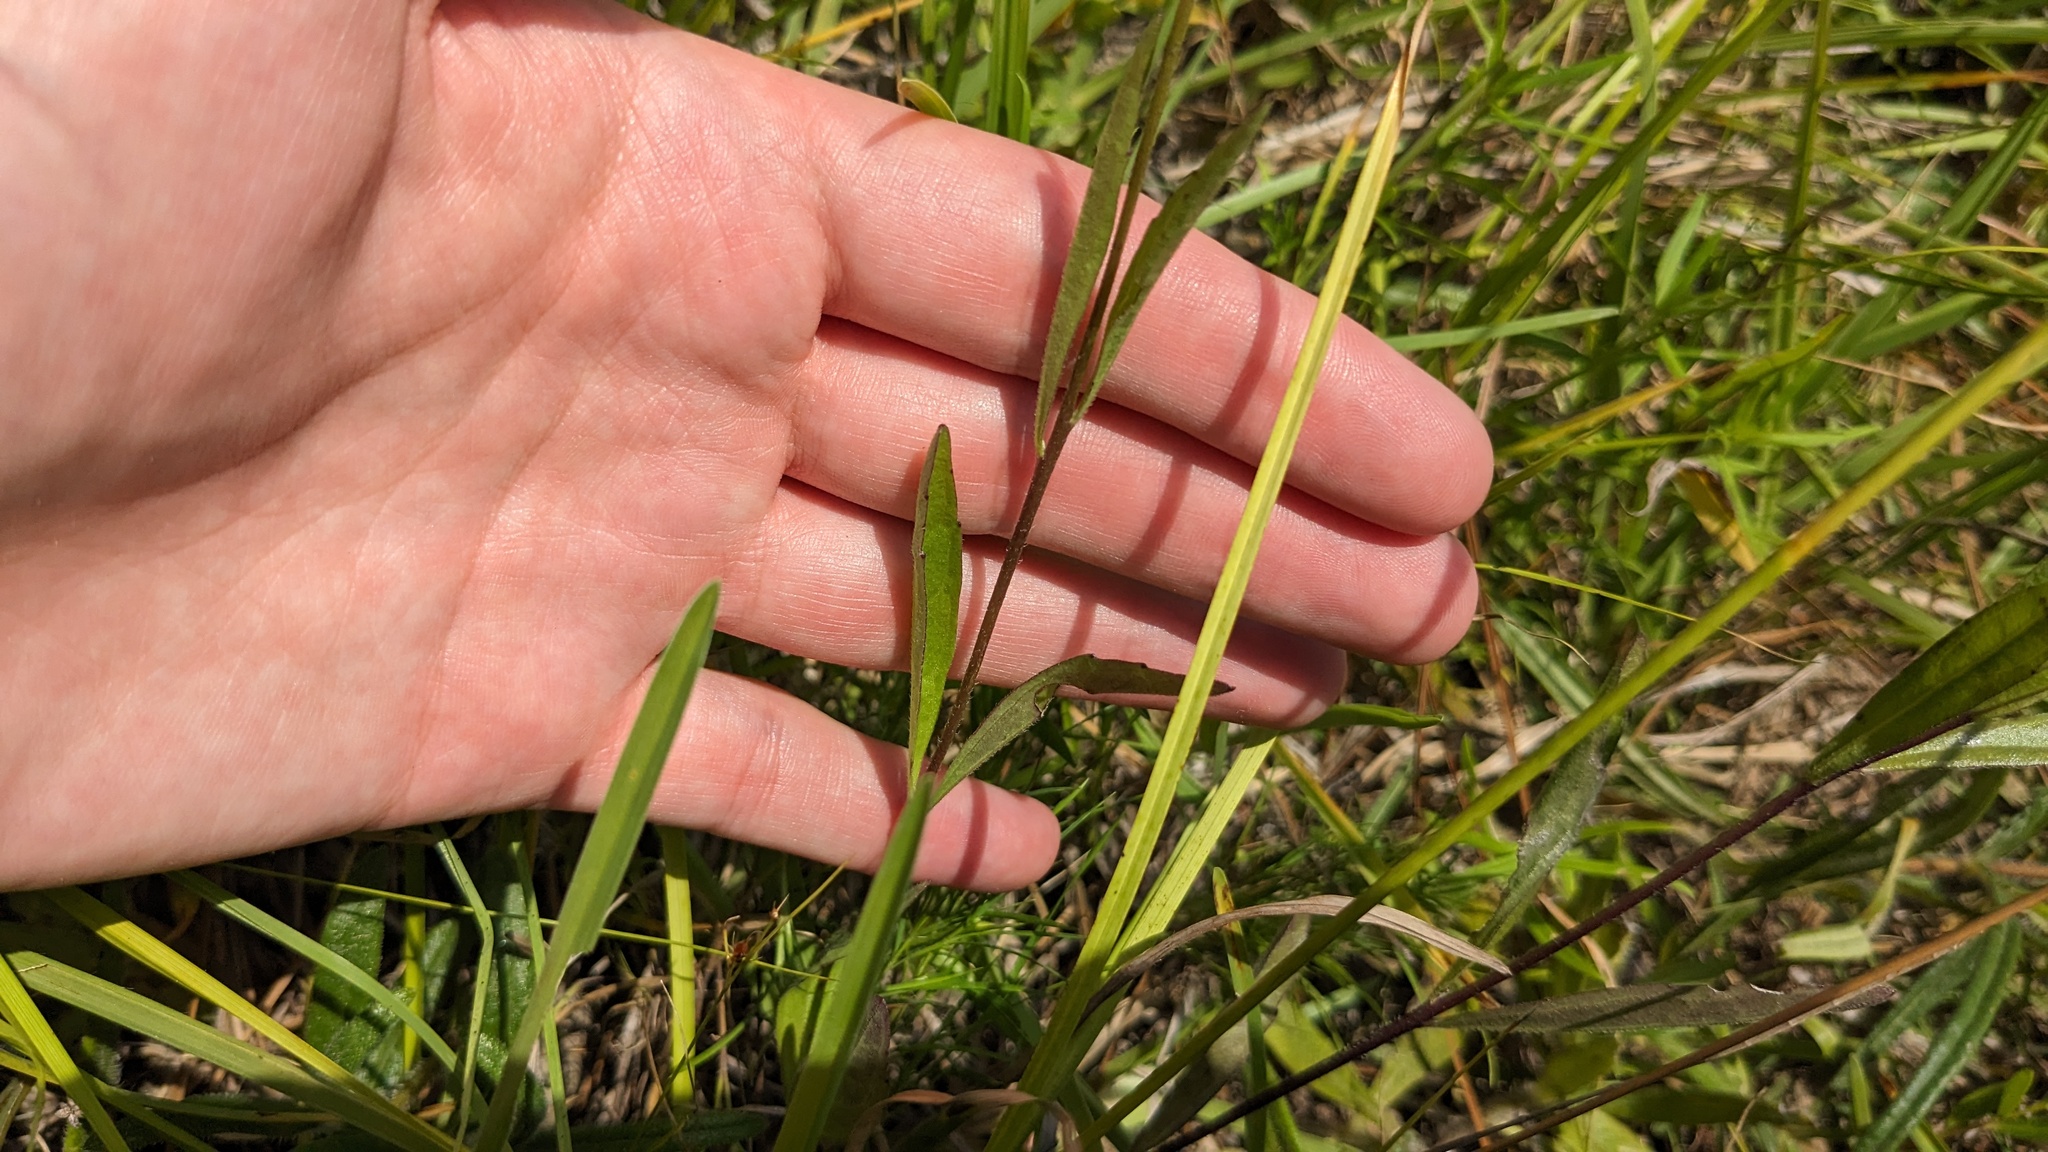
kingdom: Plantae
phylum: Tracheophyta
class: Magnoliopsida
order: Lamiales
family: Orobanchaceae
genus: Buchnera
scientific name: Buchnera floridana
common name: Florida bluehearts
